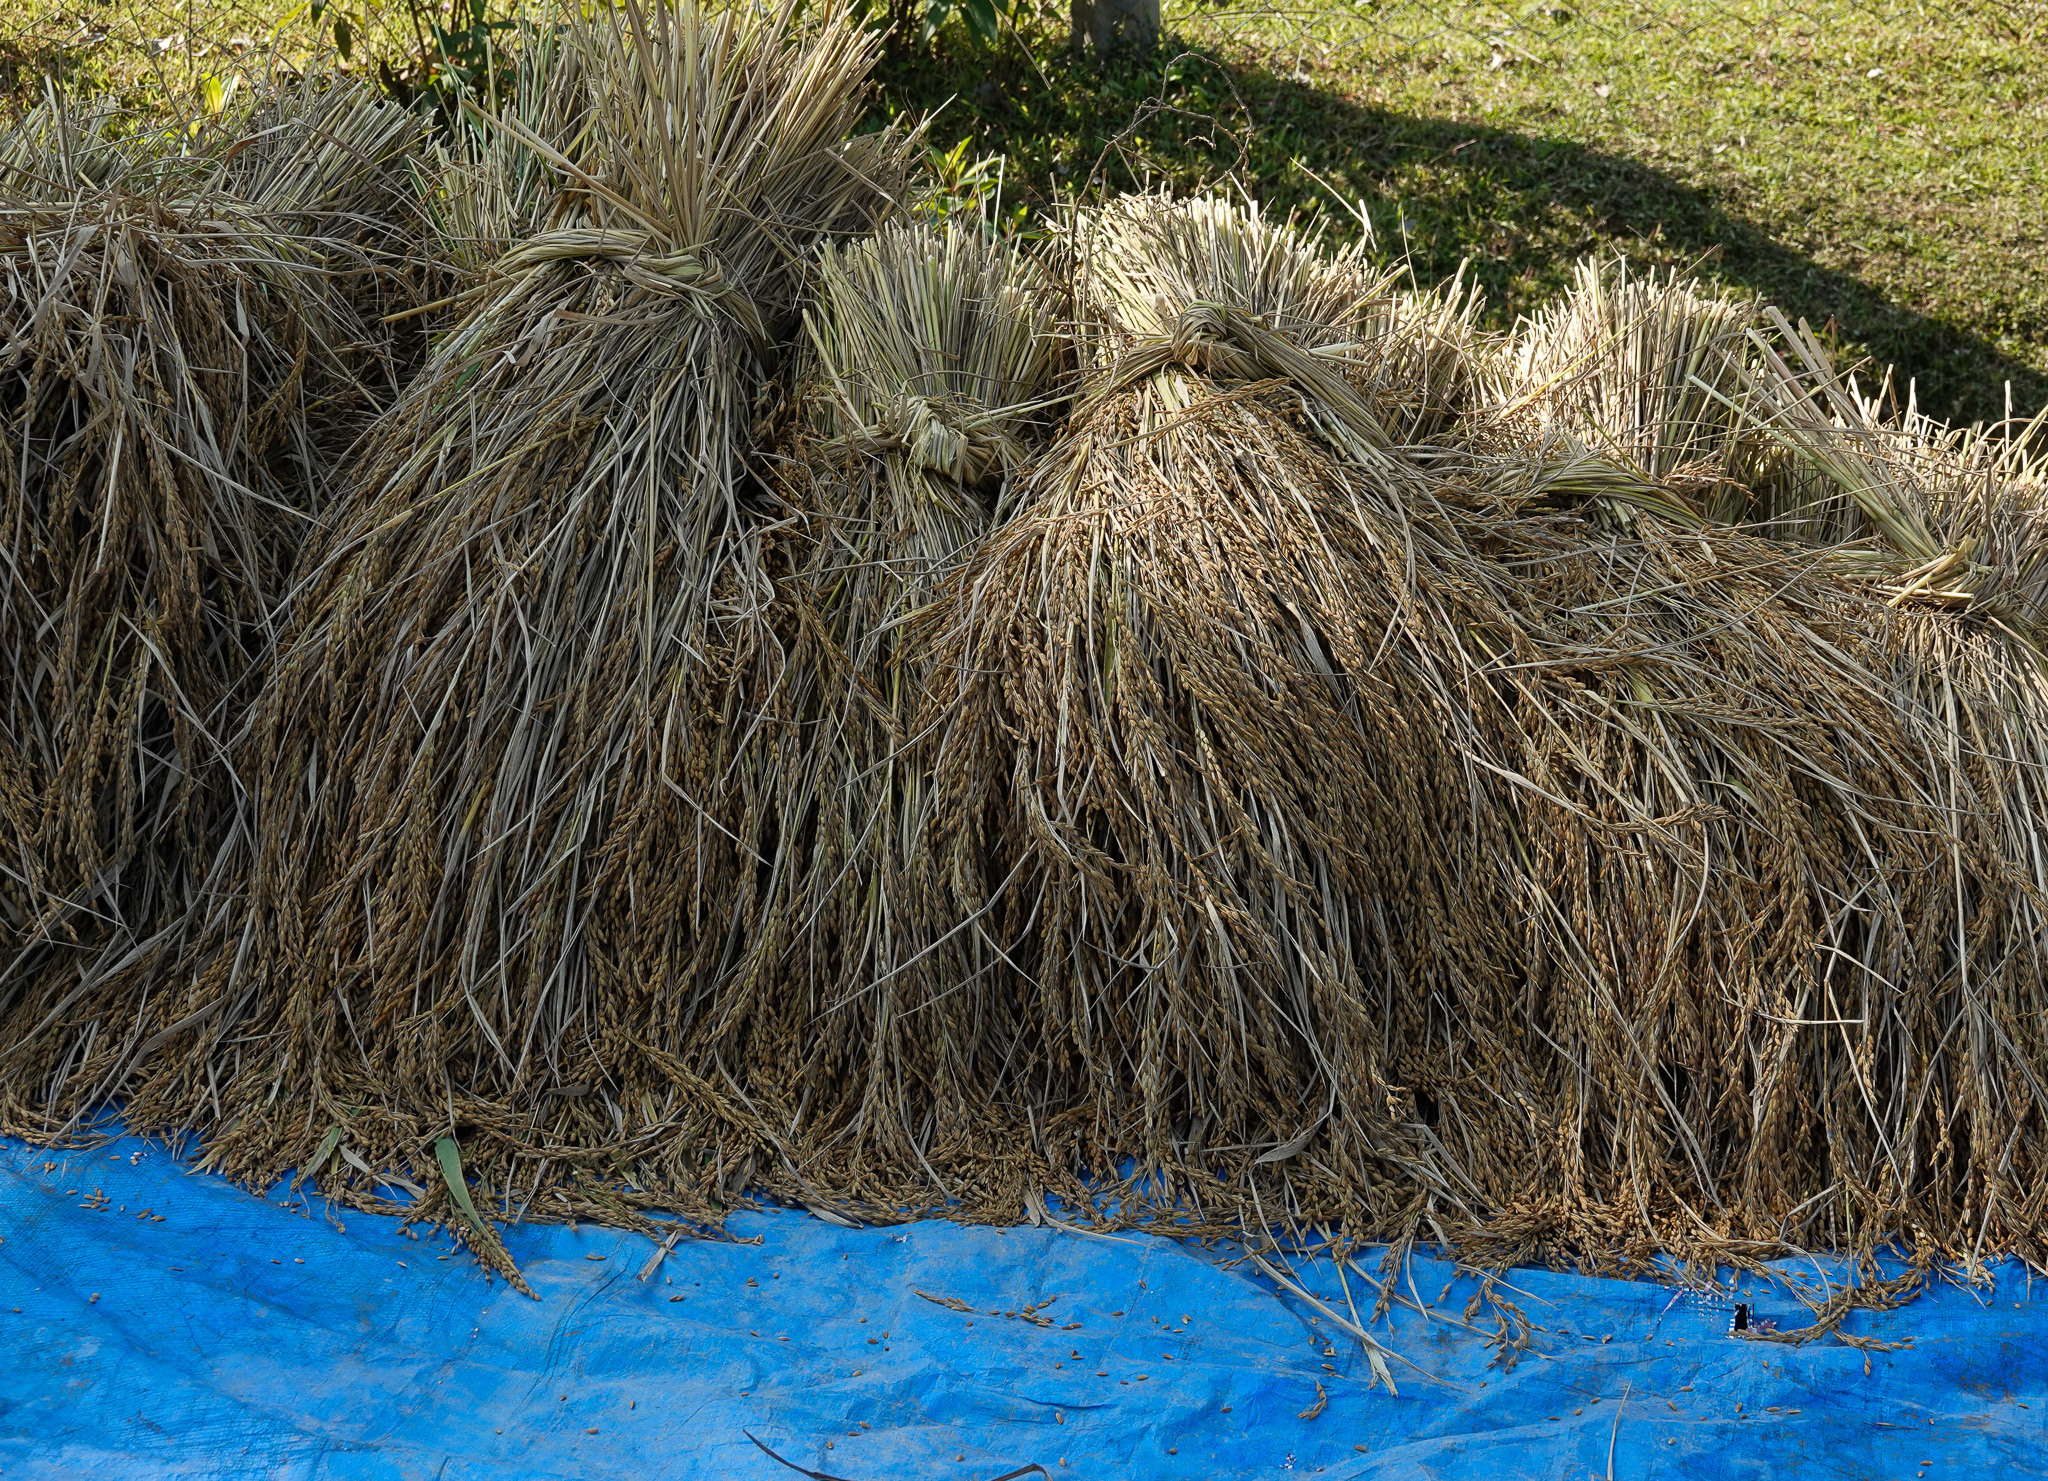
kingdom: Plantae
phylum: Tracheophyta
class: Liliopsida
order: Poales
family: Poaceae
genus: Oryza
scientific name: Oryza sativa
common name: Rice
